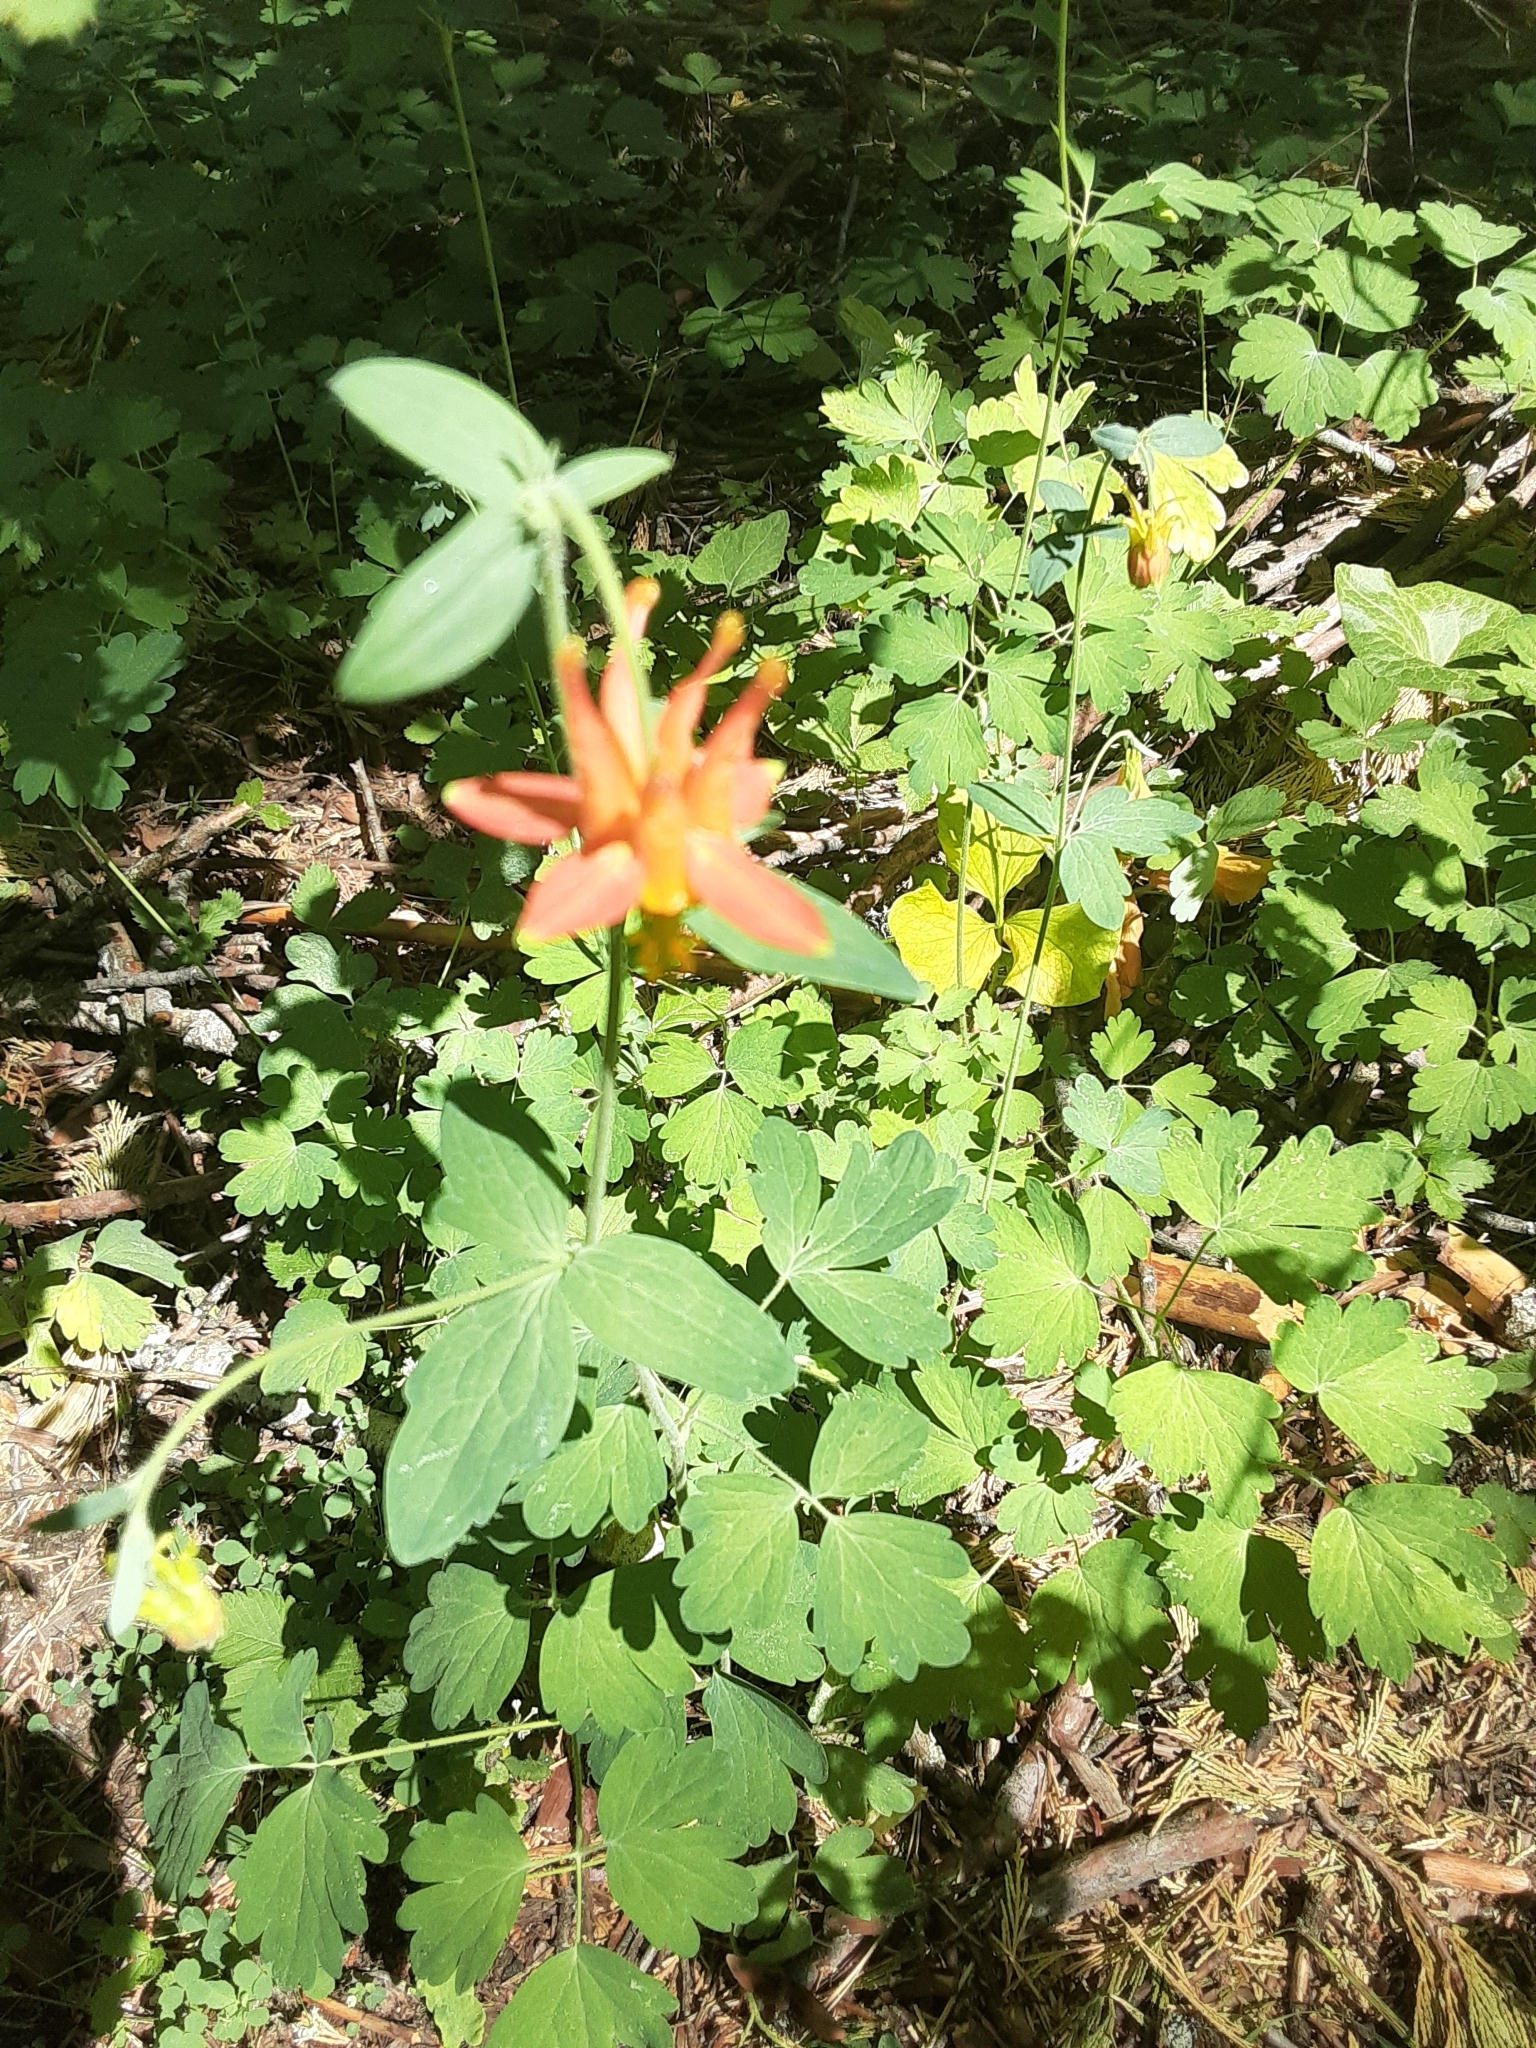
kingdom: Plantae
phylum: Tracheophyta
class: Magnoliopsida
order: Ranunculales
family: Ranunculaceae
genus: Aquilegia
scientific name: Aquilegia formosa
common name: Sitka columbine
